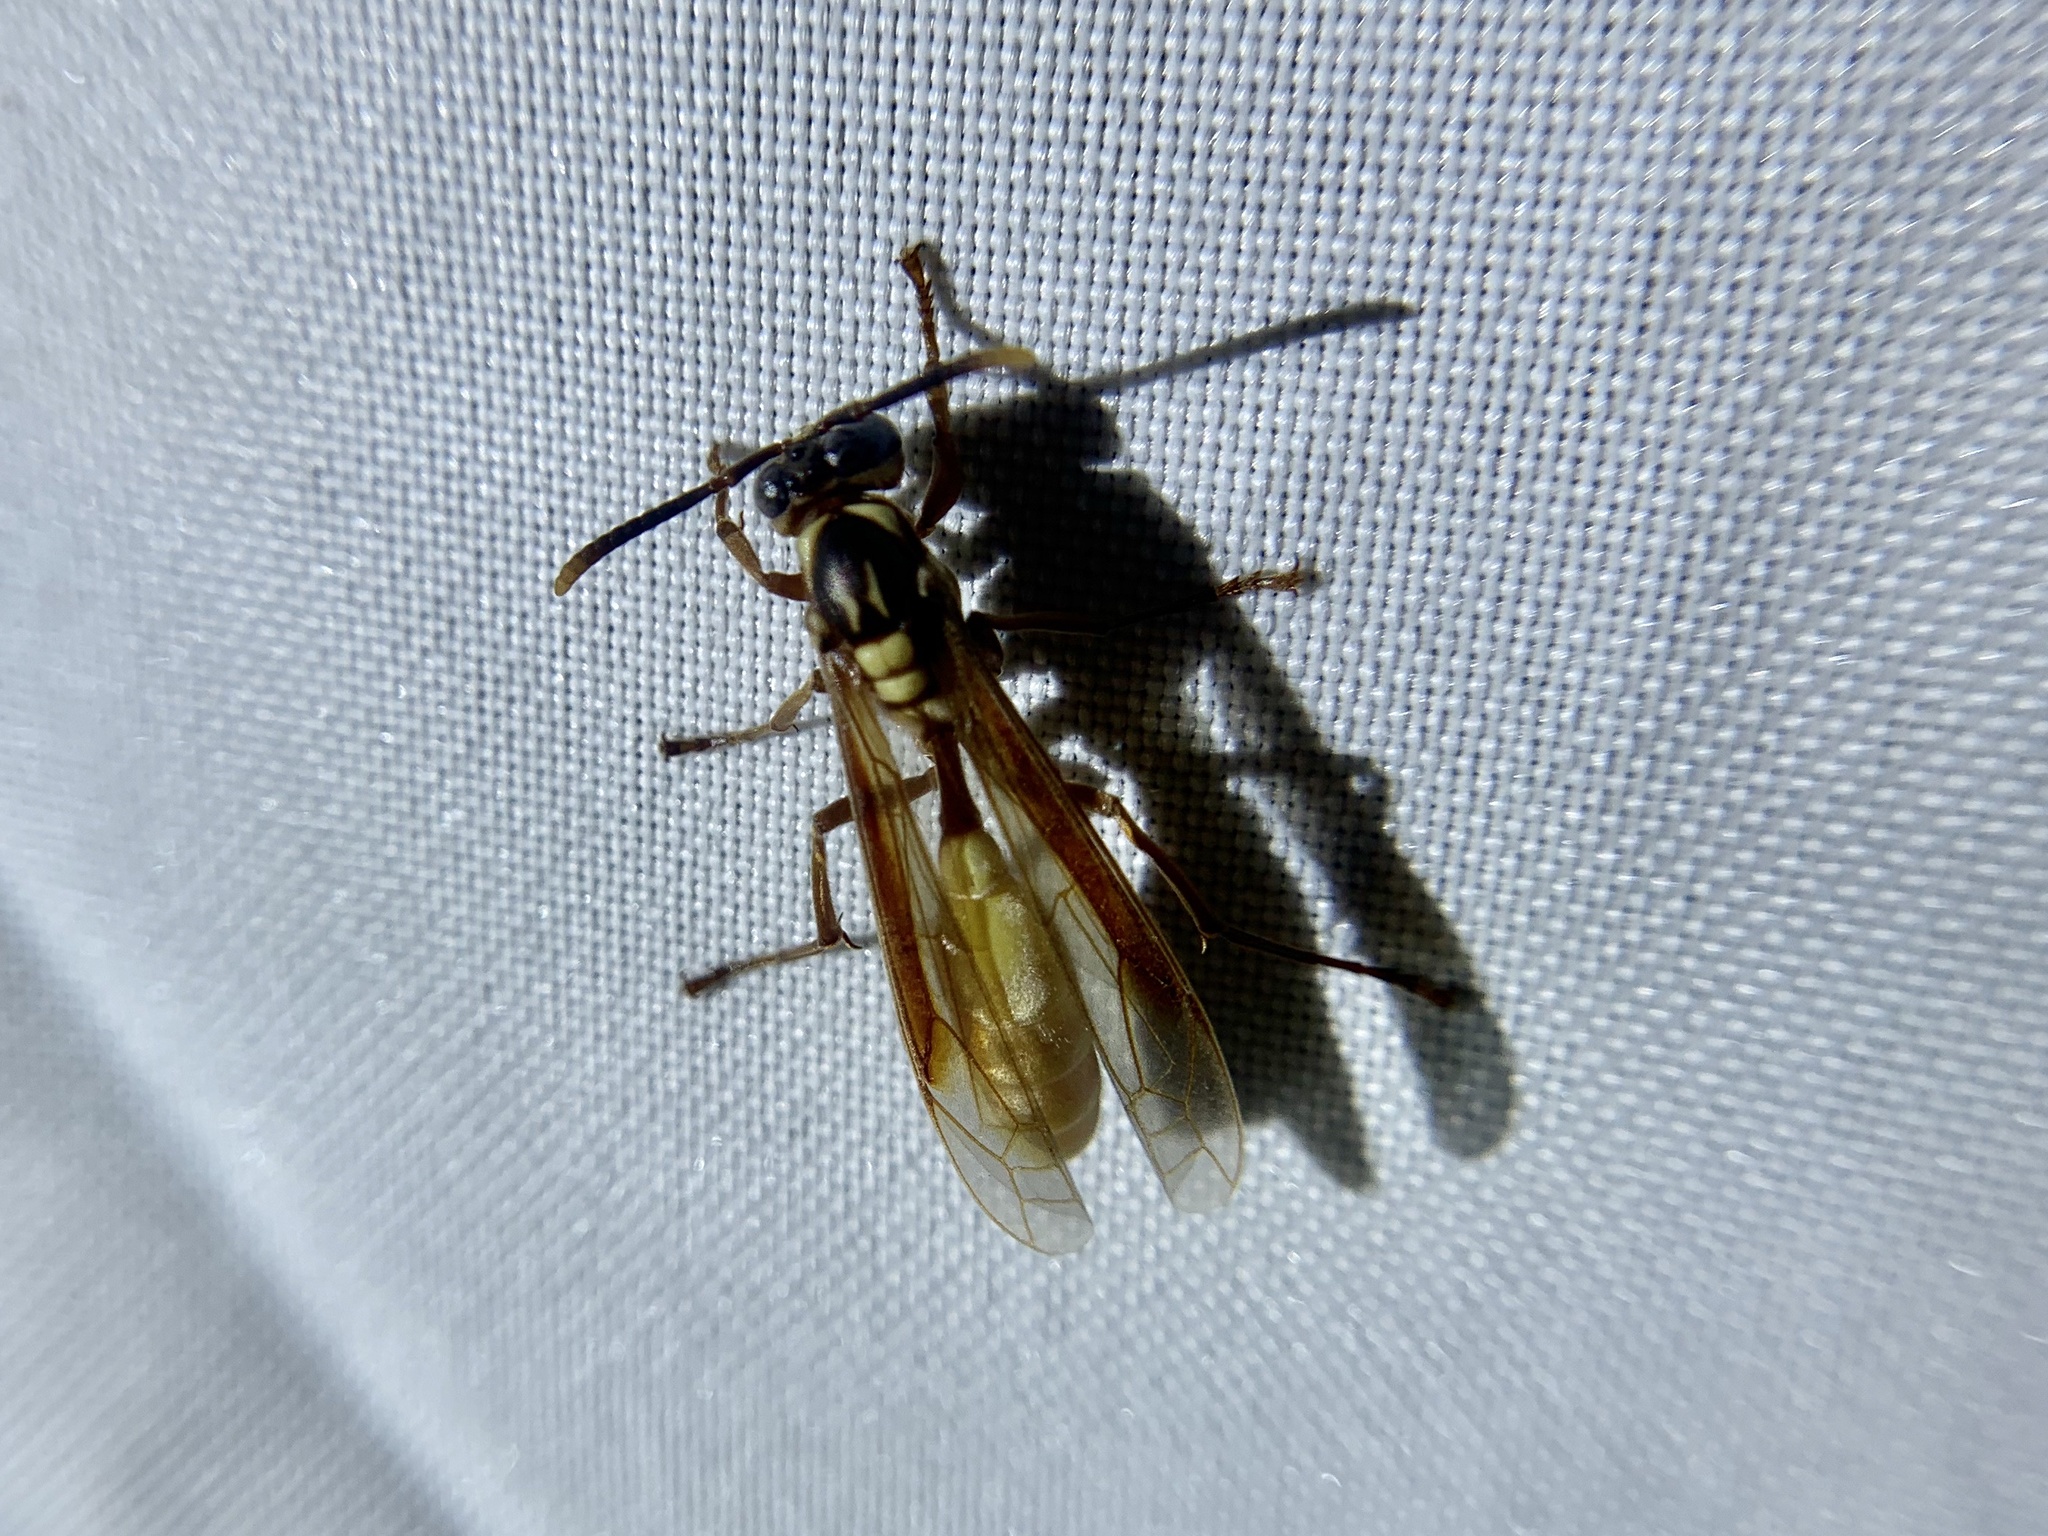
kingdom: Animalia
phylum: Arthropoda
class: Insecta
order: Hymenoptera
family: Vespidae
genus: Apoica
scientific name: Apoica pallens
